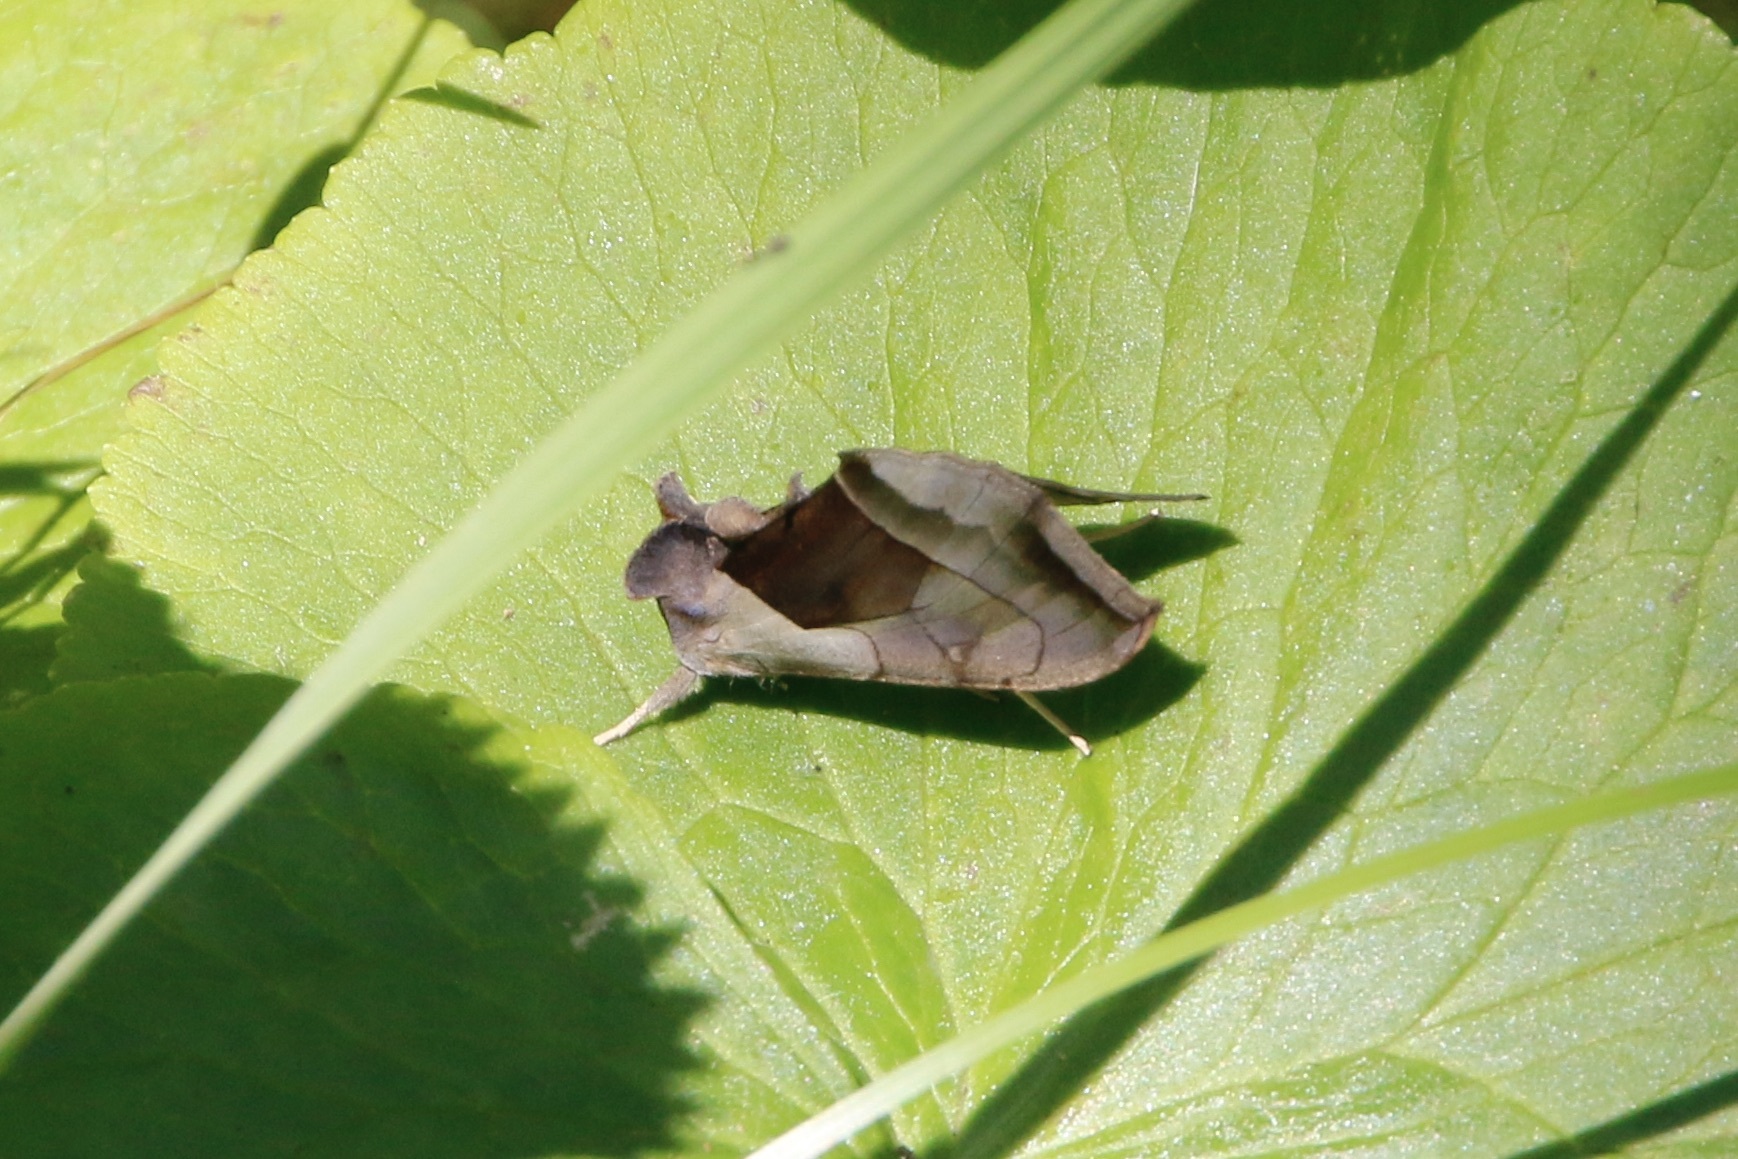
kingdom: Animalia
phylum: Arthropoda
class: Insecta
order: Lepidoptera
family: Noctuidae
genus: Diachrysia
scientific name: Diachrysia balluca
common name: Green-patched looper moth
